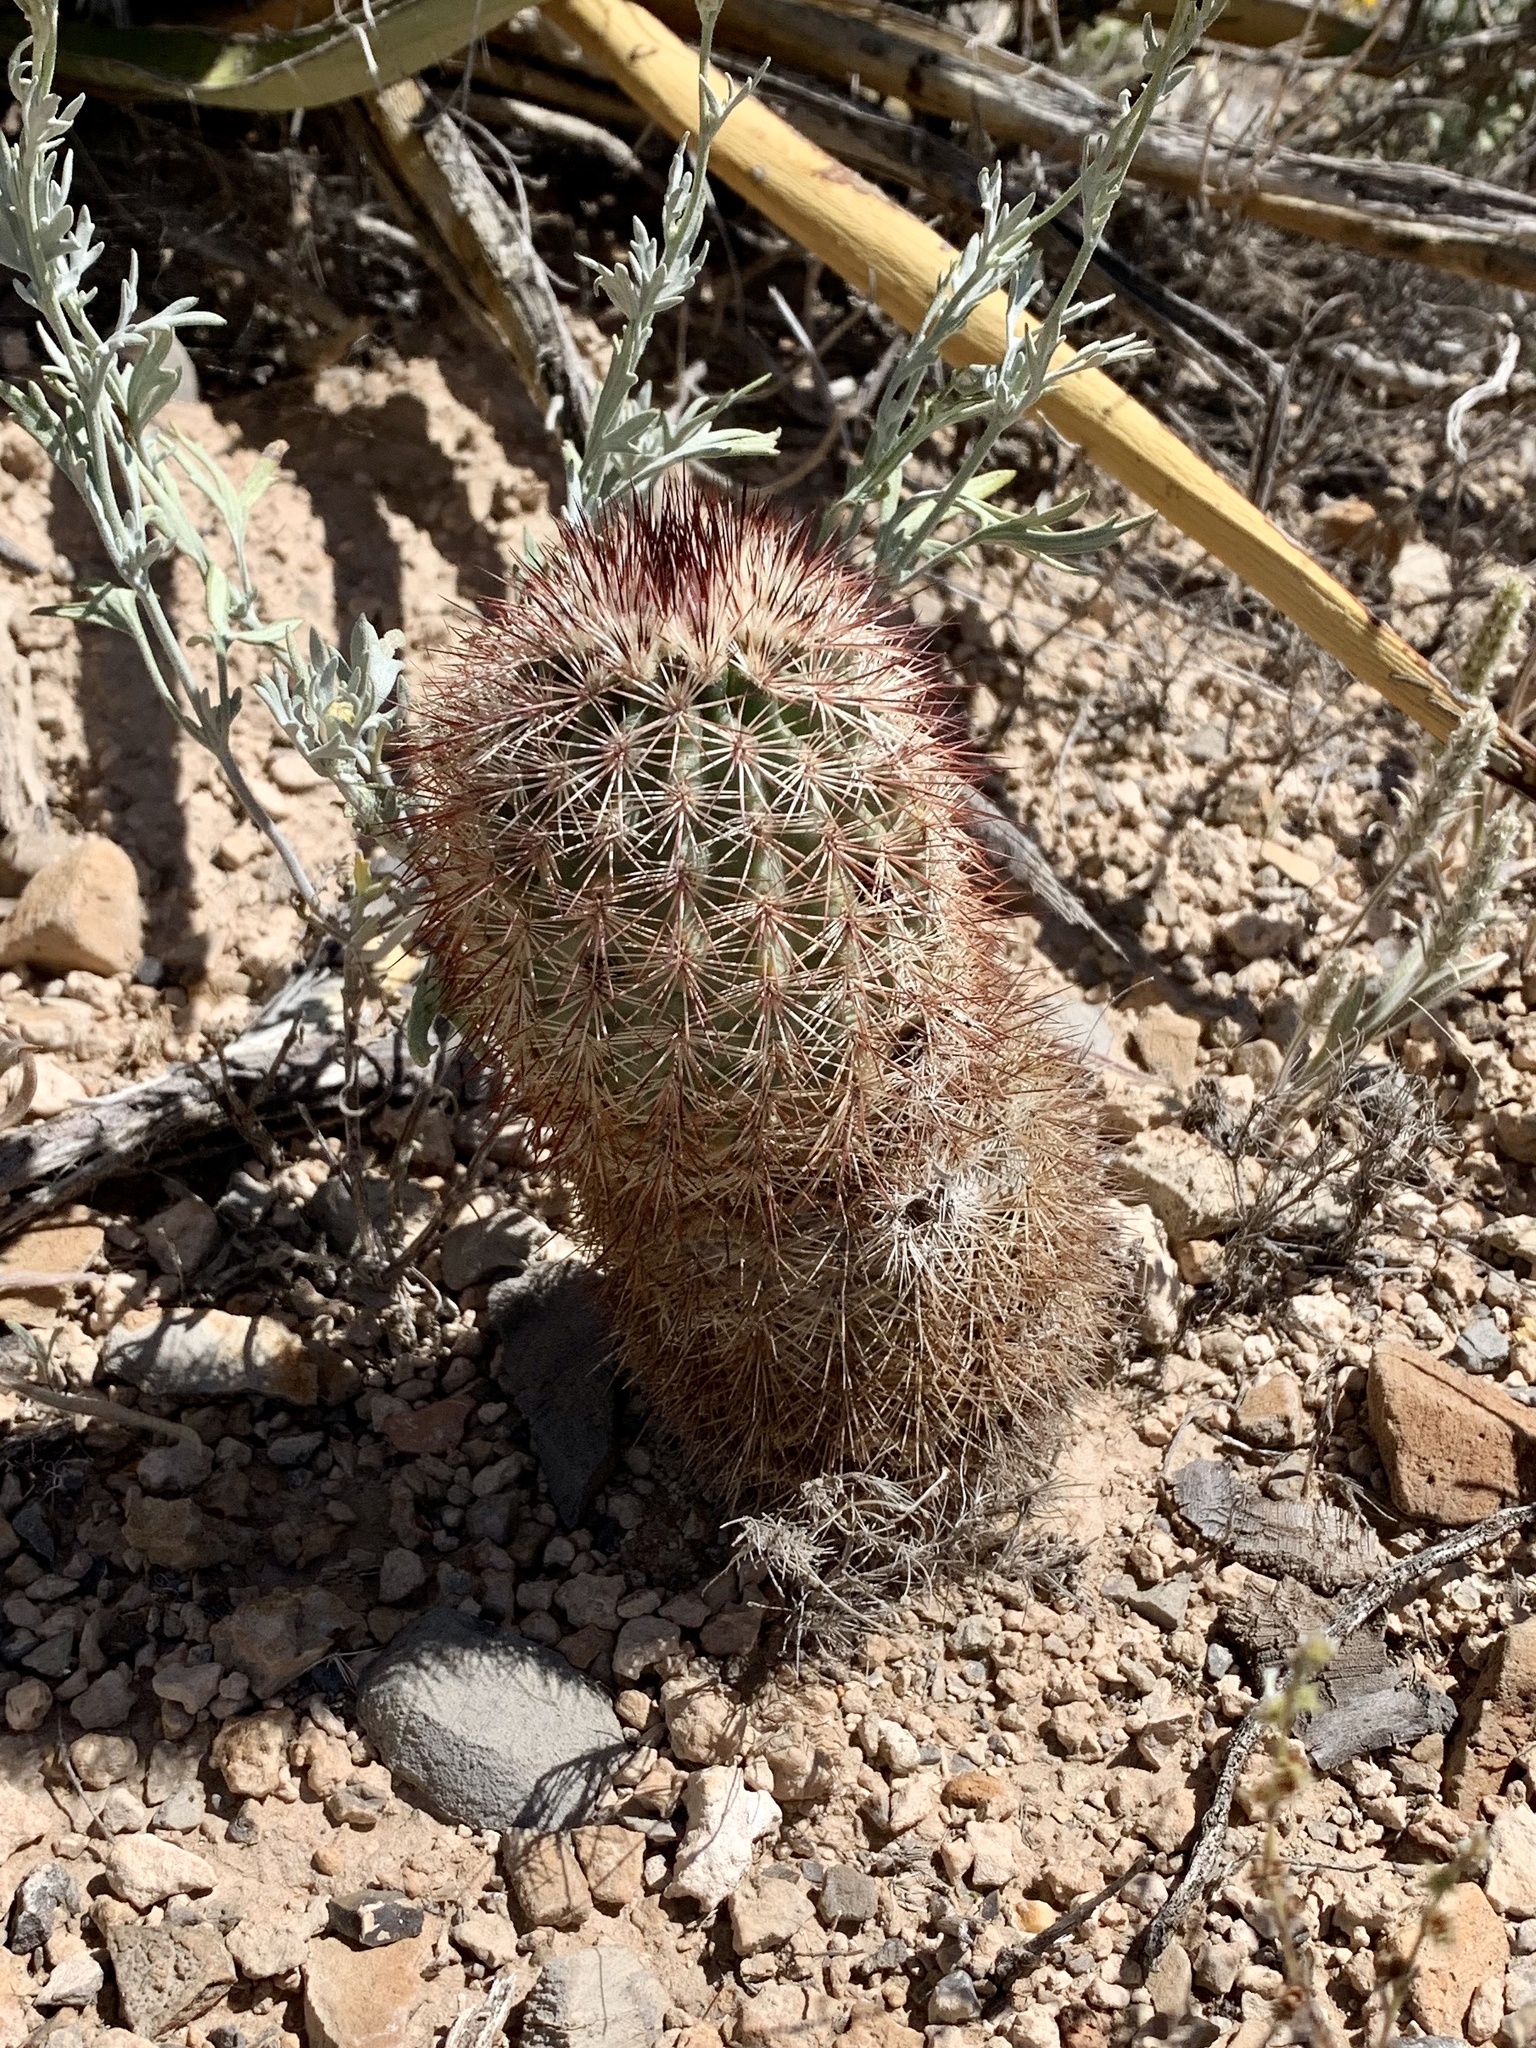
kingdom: Plantae
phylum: Tracheophyta
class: Magnoliopsida
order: Caryophyllales
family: Cactaceae
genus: Echinocereus
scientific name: Echinocereus dasyacanthus
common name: Spiny hedgehog cactus
